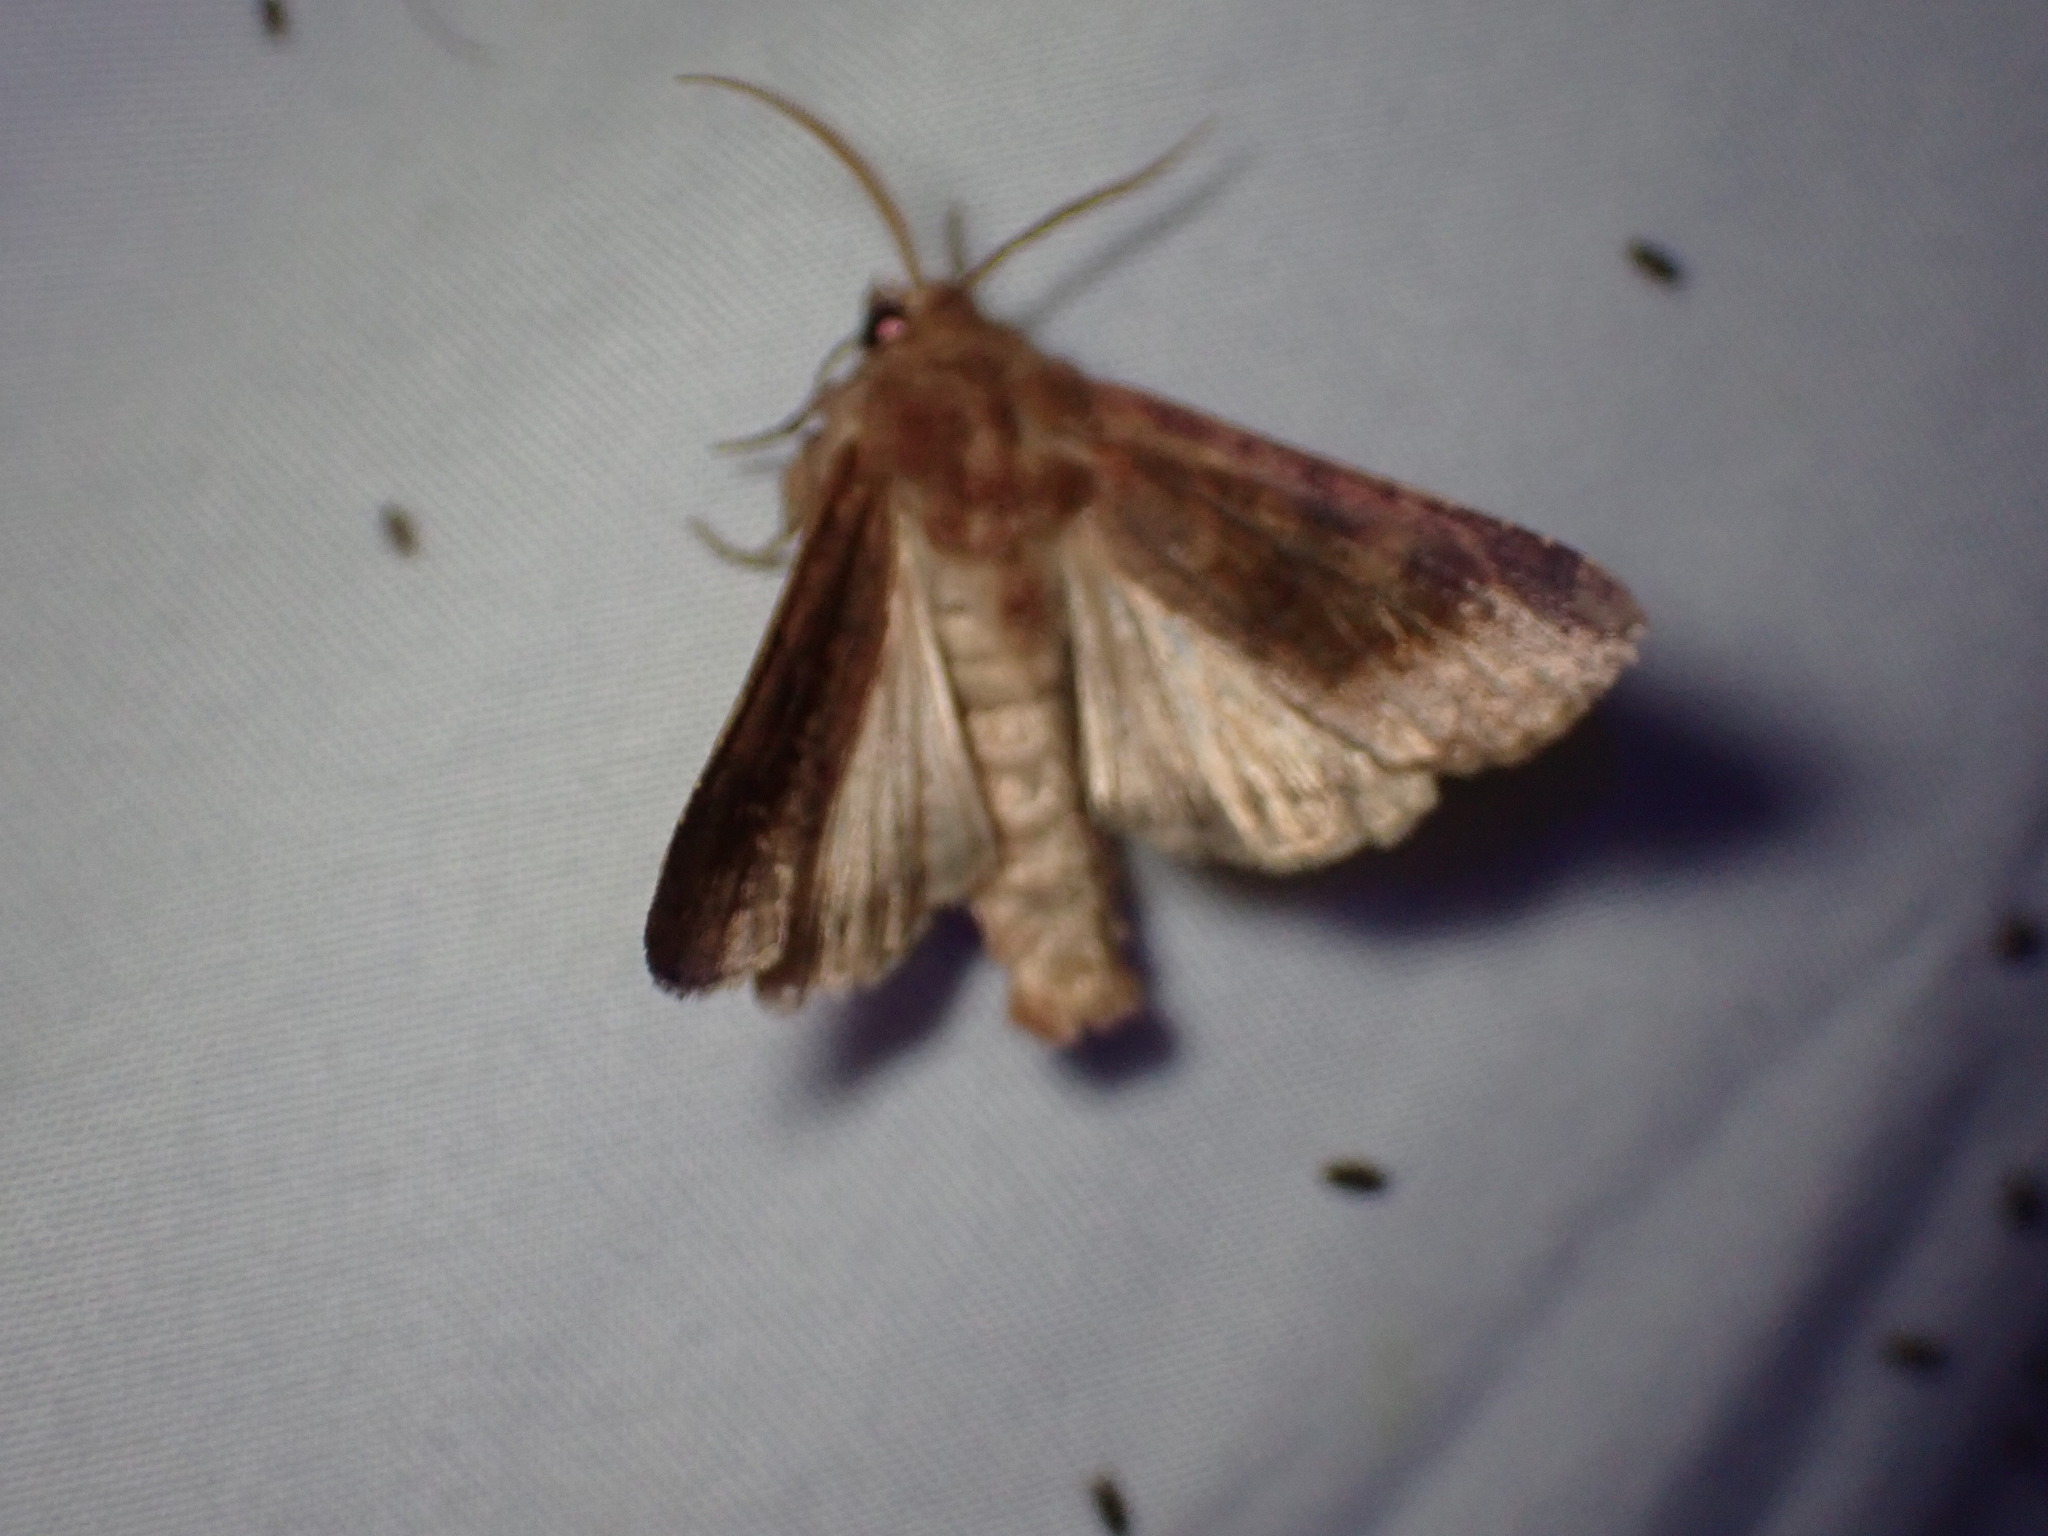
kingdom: Animalia
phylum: Arthropoda
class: Insecta
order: Lepidoptera
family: Noctuidae
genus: Nephelodes
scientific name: Nephelodes minians
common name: Bronzed cutworm
